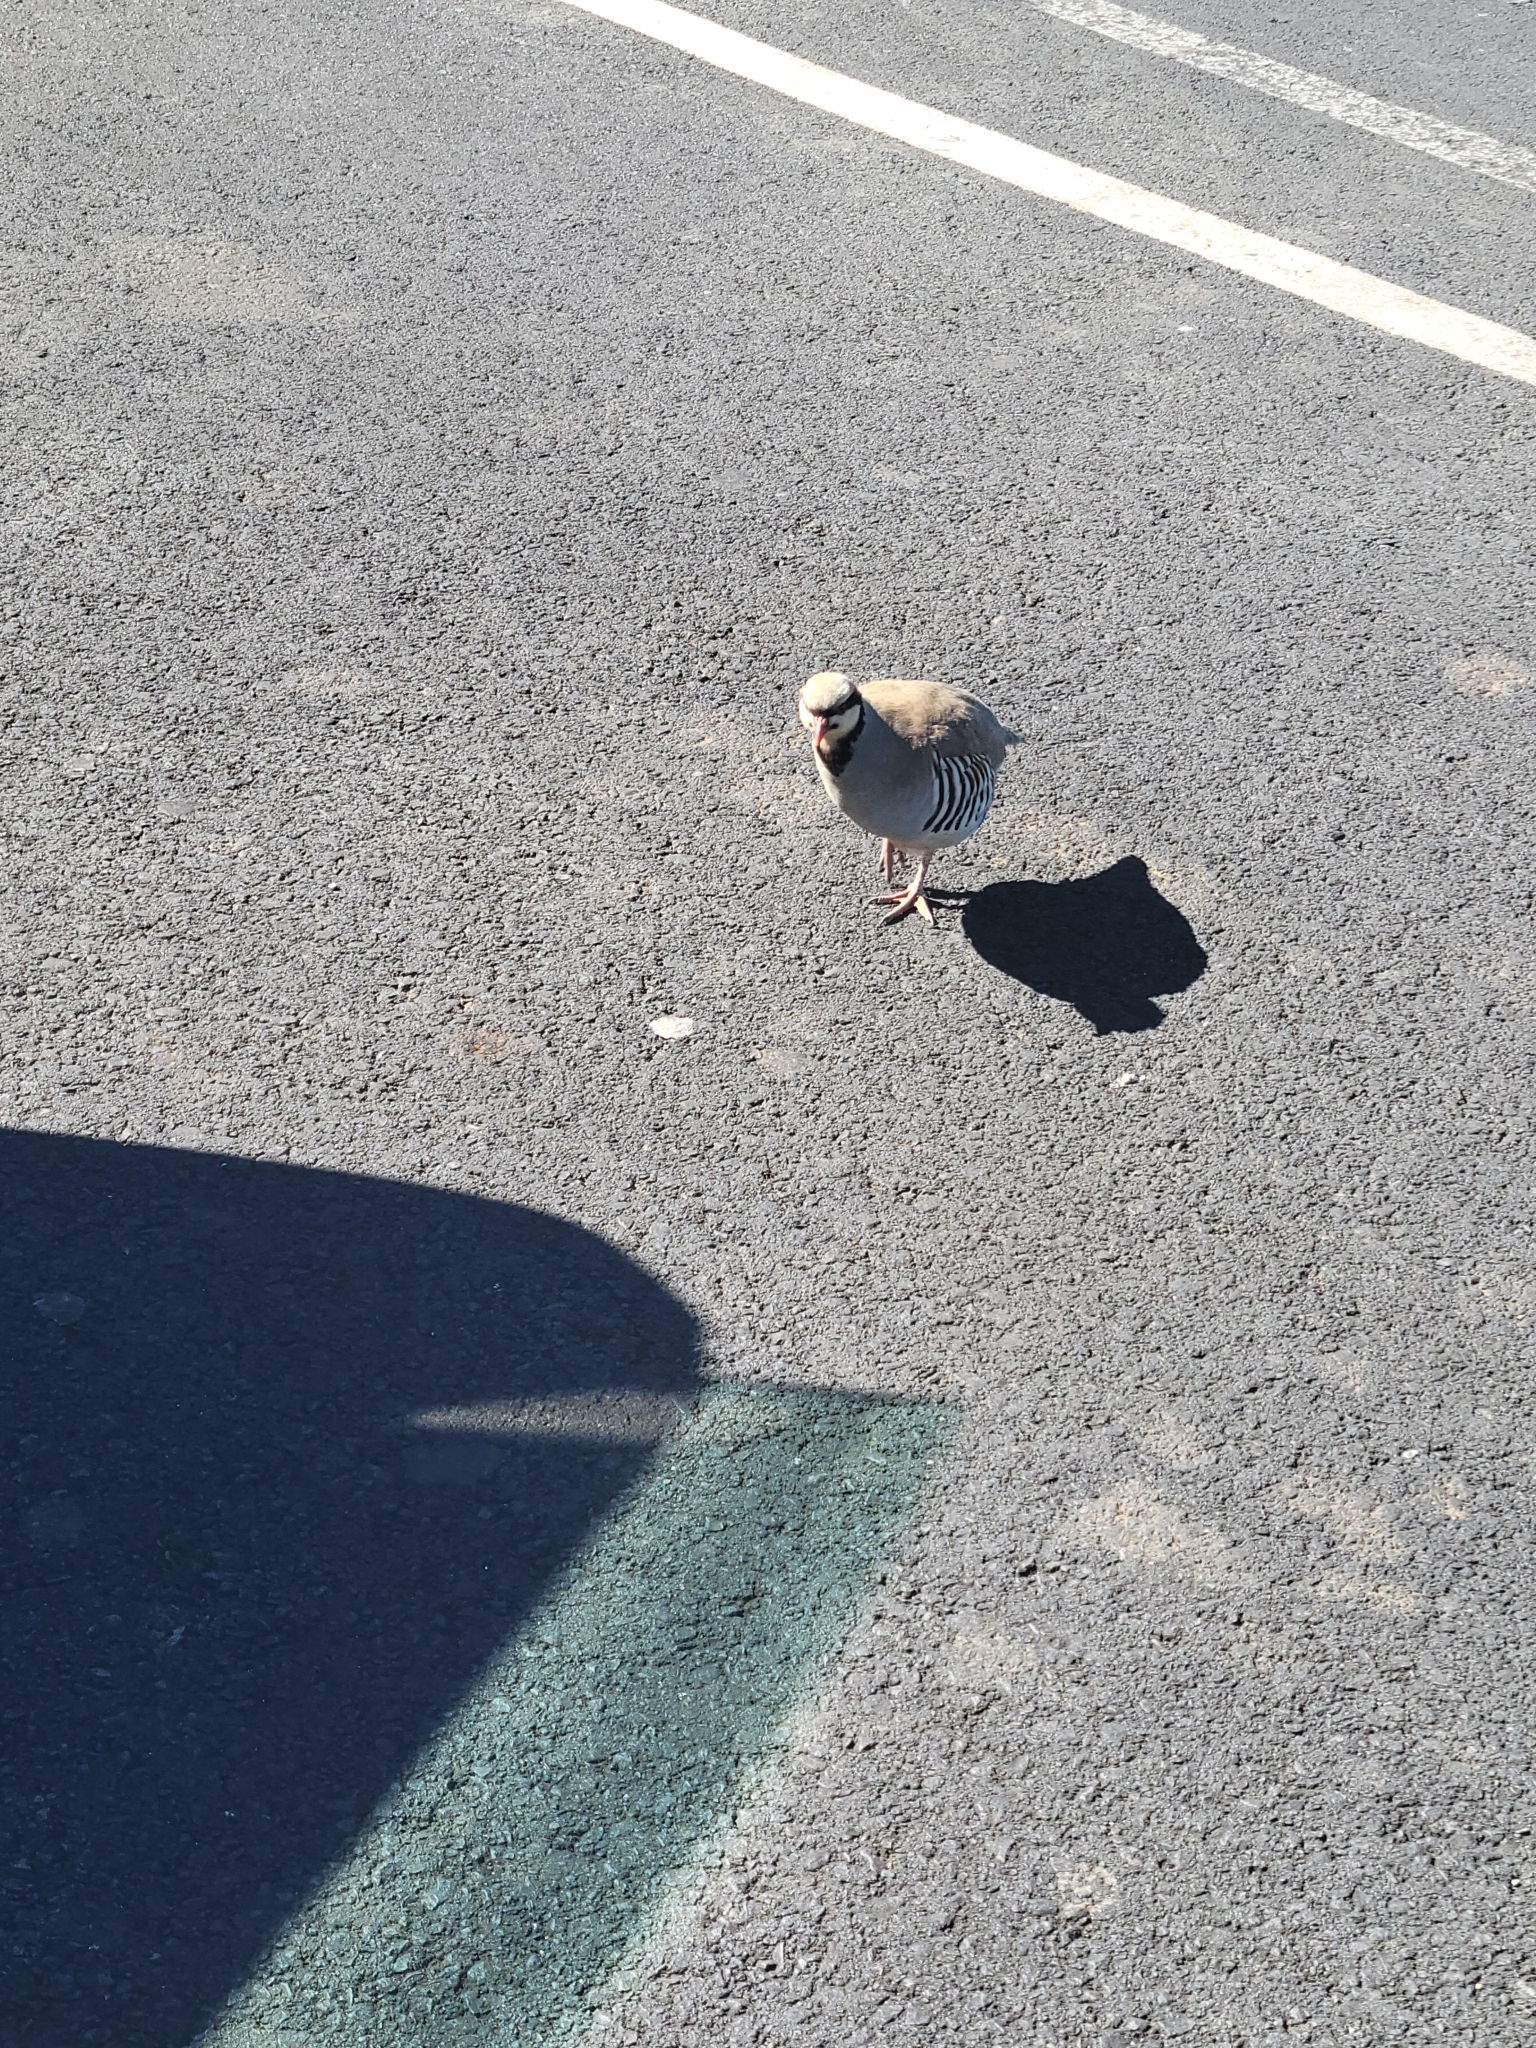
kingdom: Animalia
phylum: Chordata
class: Aves
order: Galliformes
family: Phasianidae
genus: Alectoris
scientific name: Alectoris chukar
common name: Chukar
